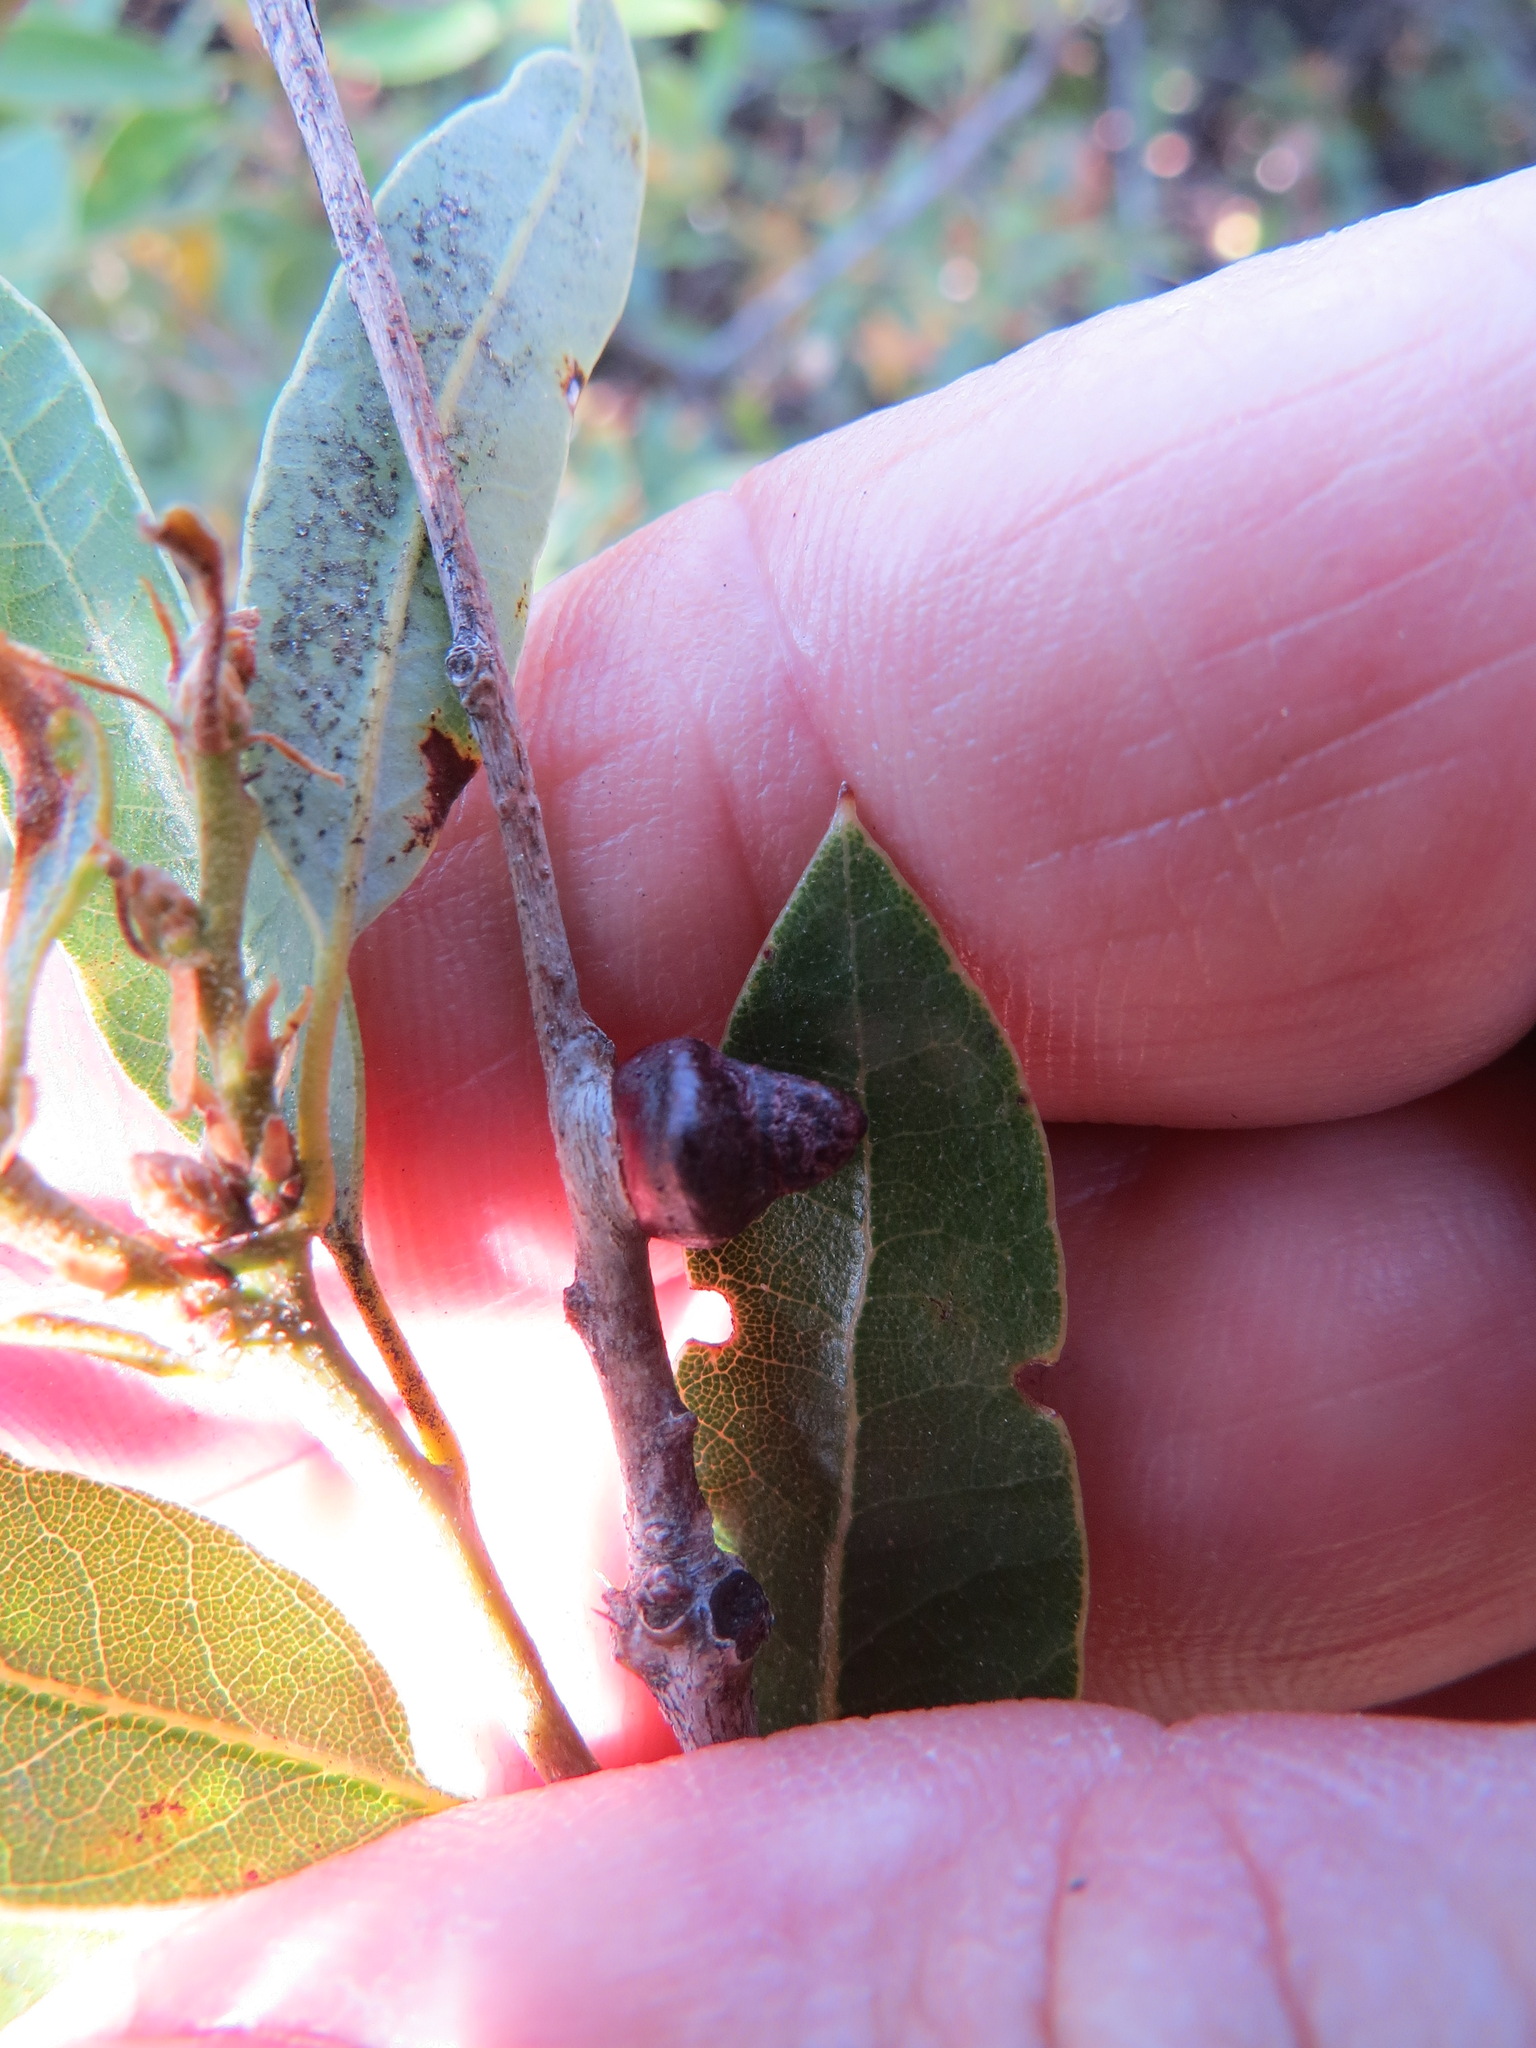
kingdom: Animalia
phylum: Arthropoda
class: Insecta
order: Hymenoptera
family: Cynipidae
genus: Disholandricus
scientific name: Disholandricus
